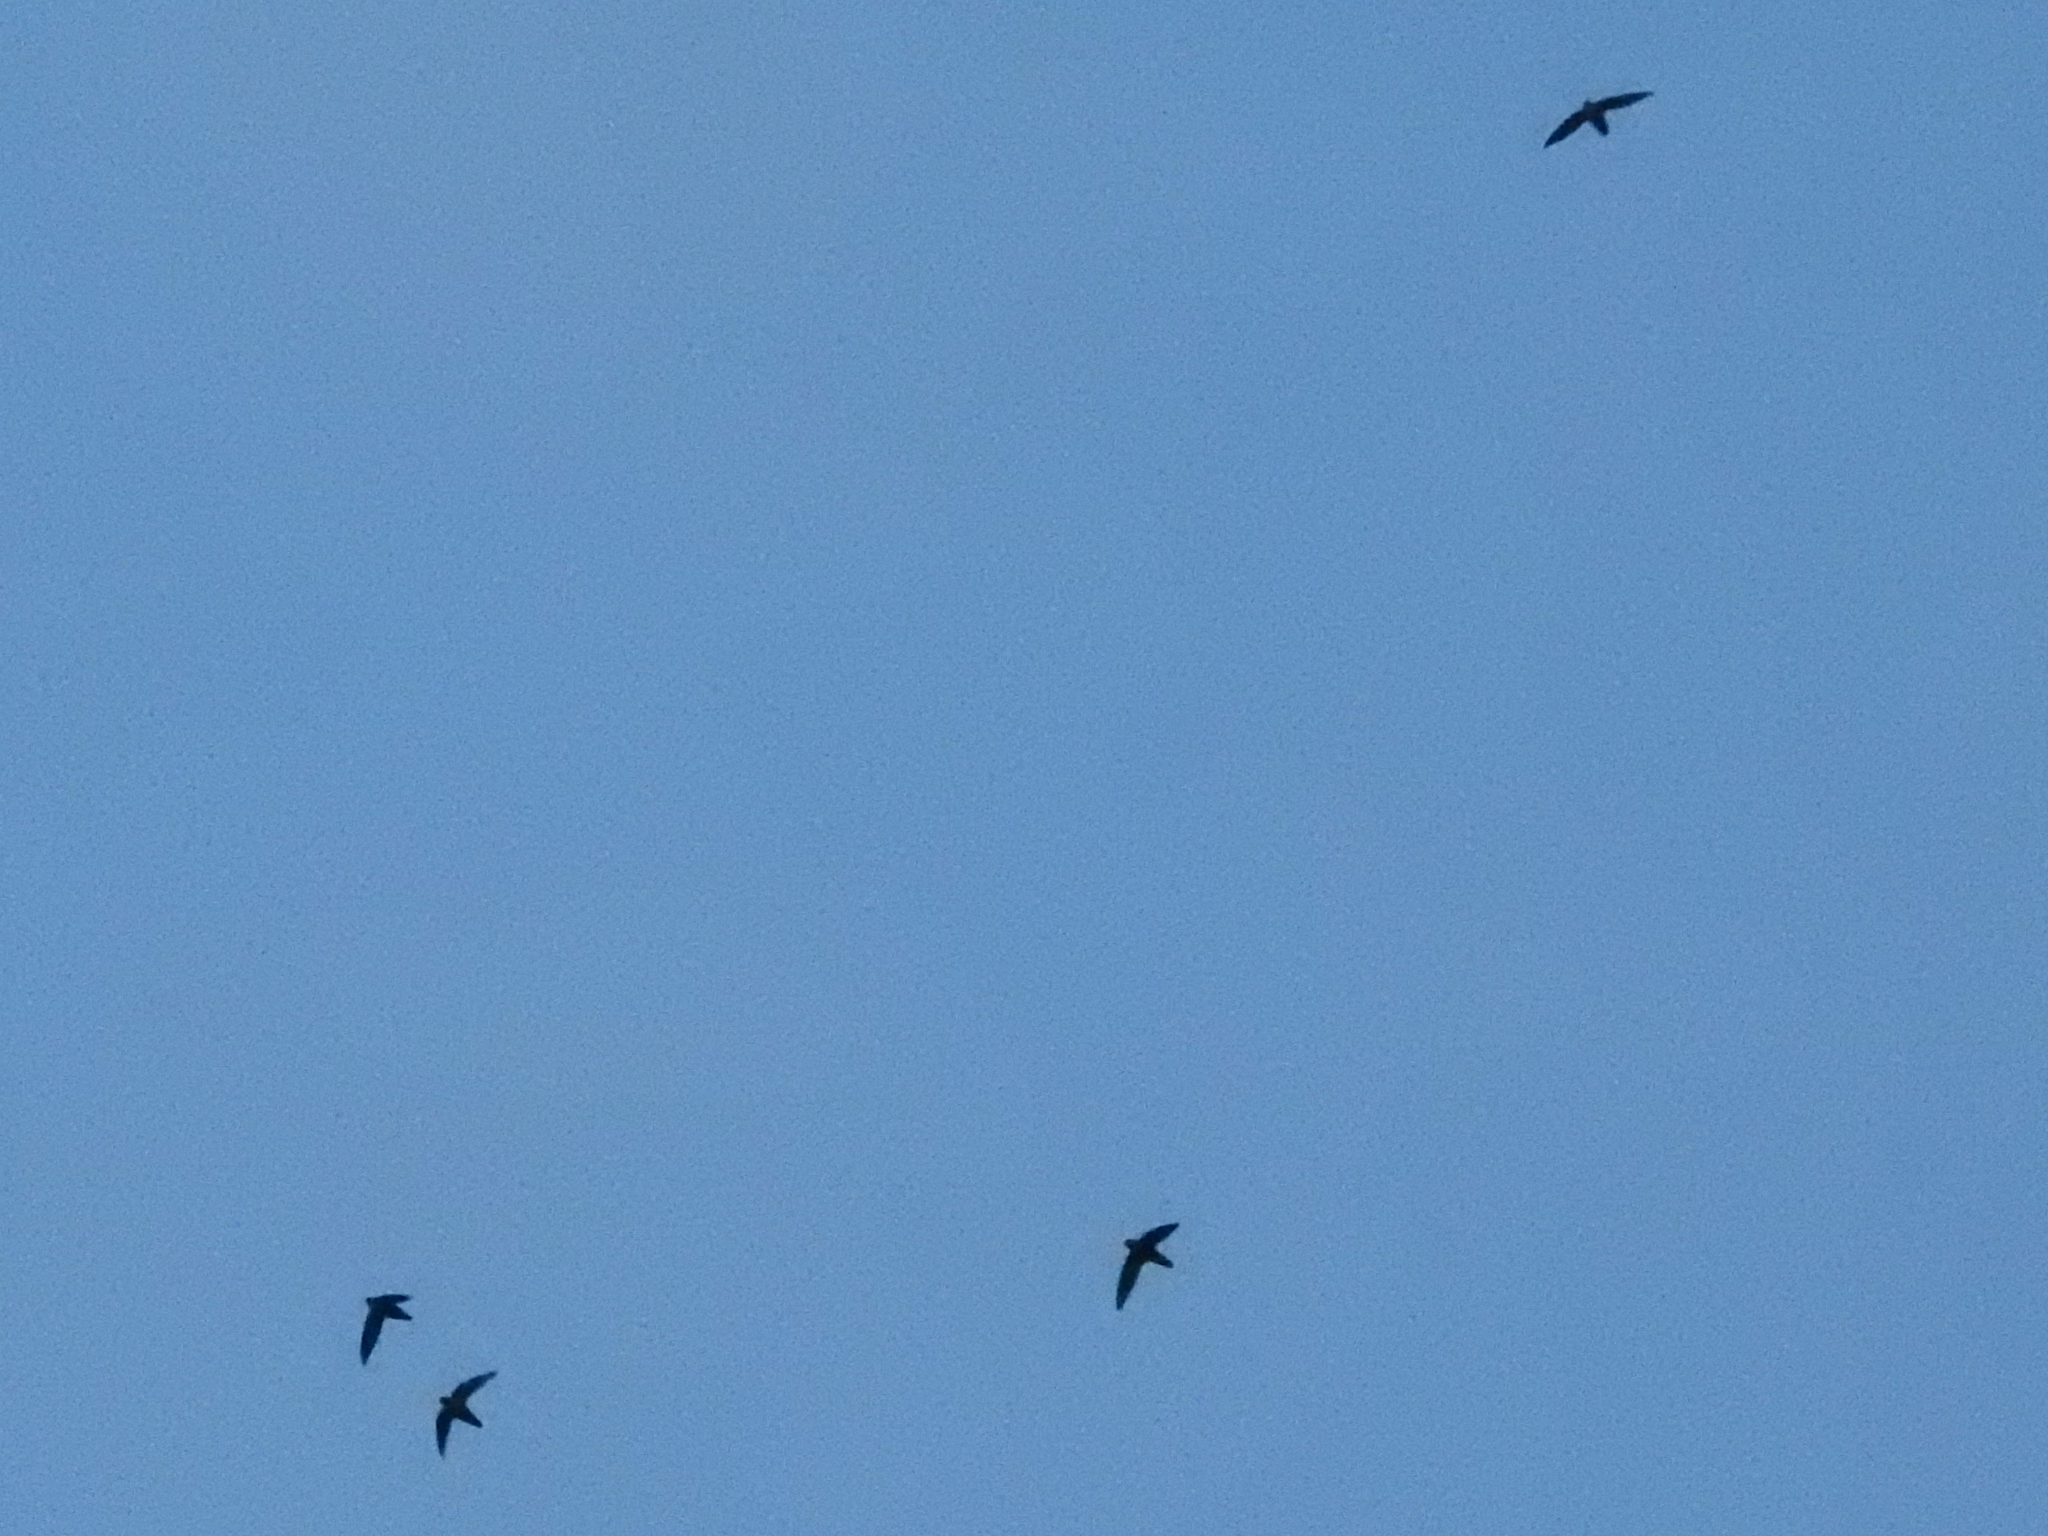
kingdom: Animalia
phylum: Chordata
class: Aves
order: Apodiformes
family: Apodidae
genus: Chaetura
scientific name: Chaetura pelagica
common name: Chimney swift
